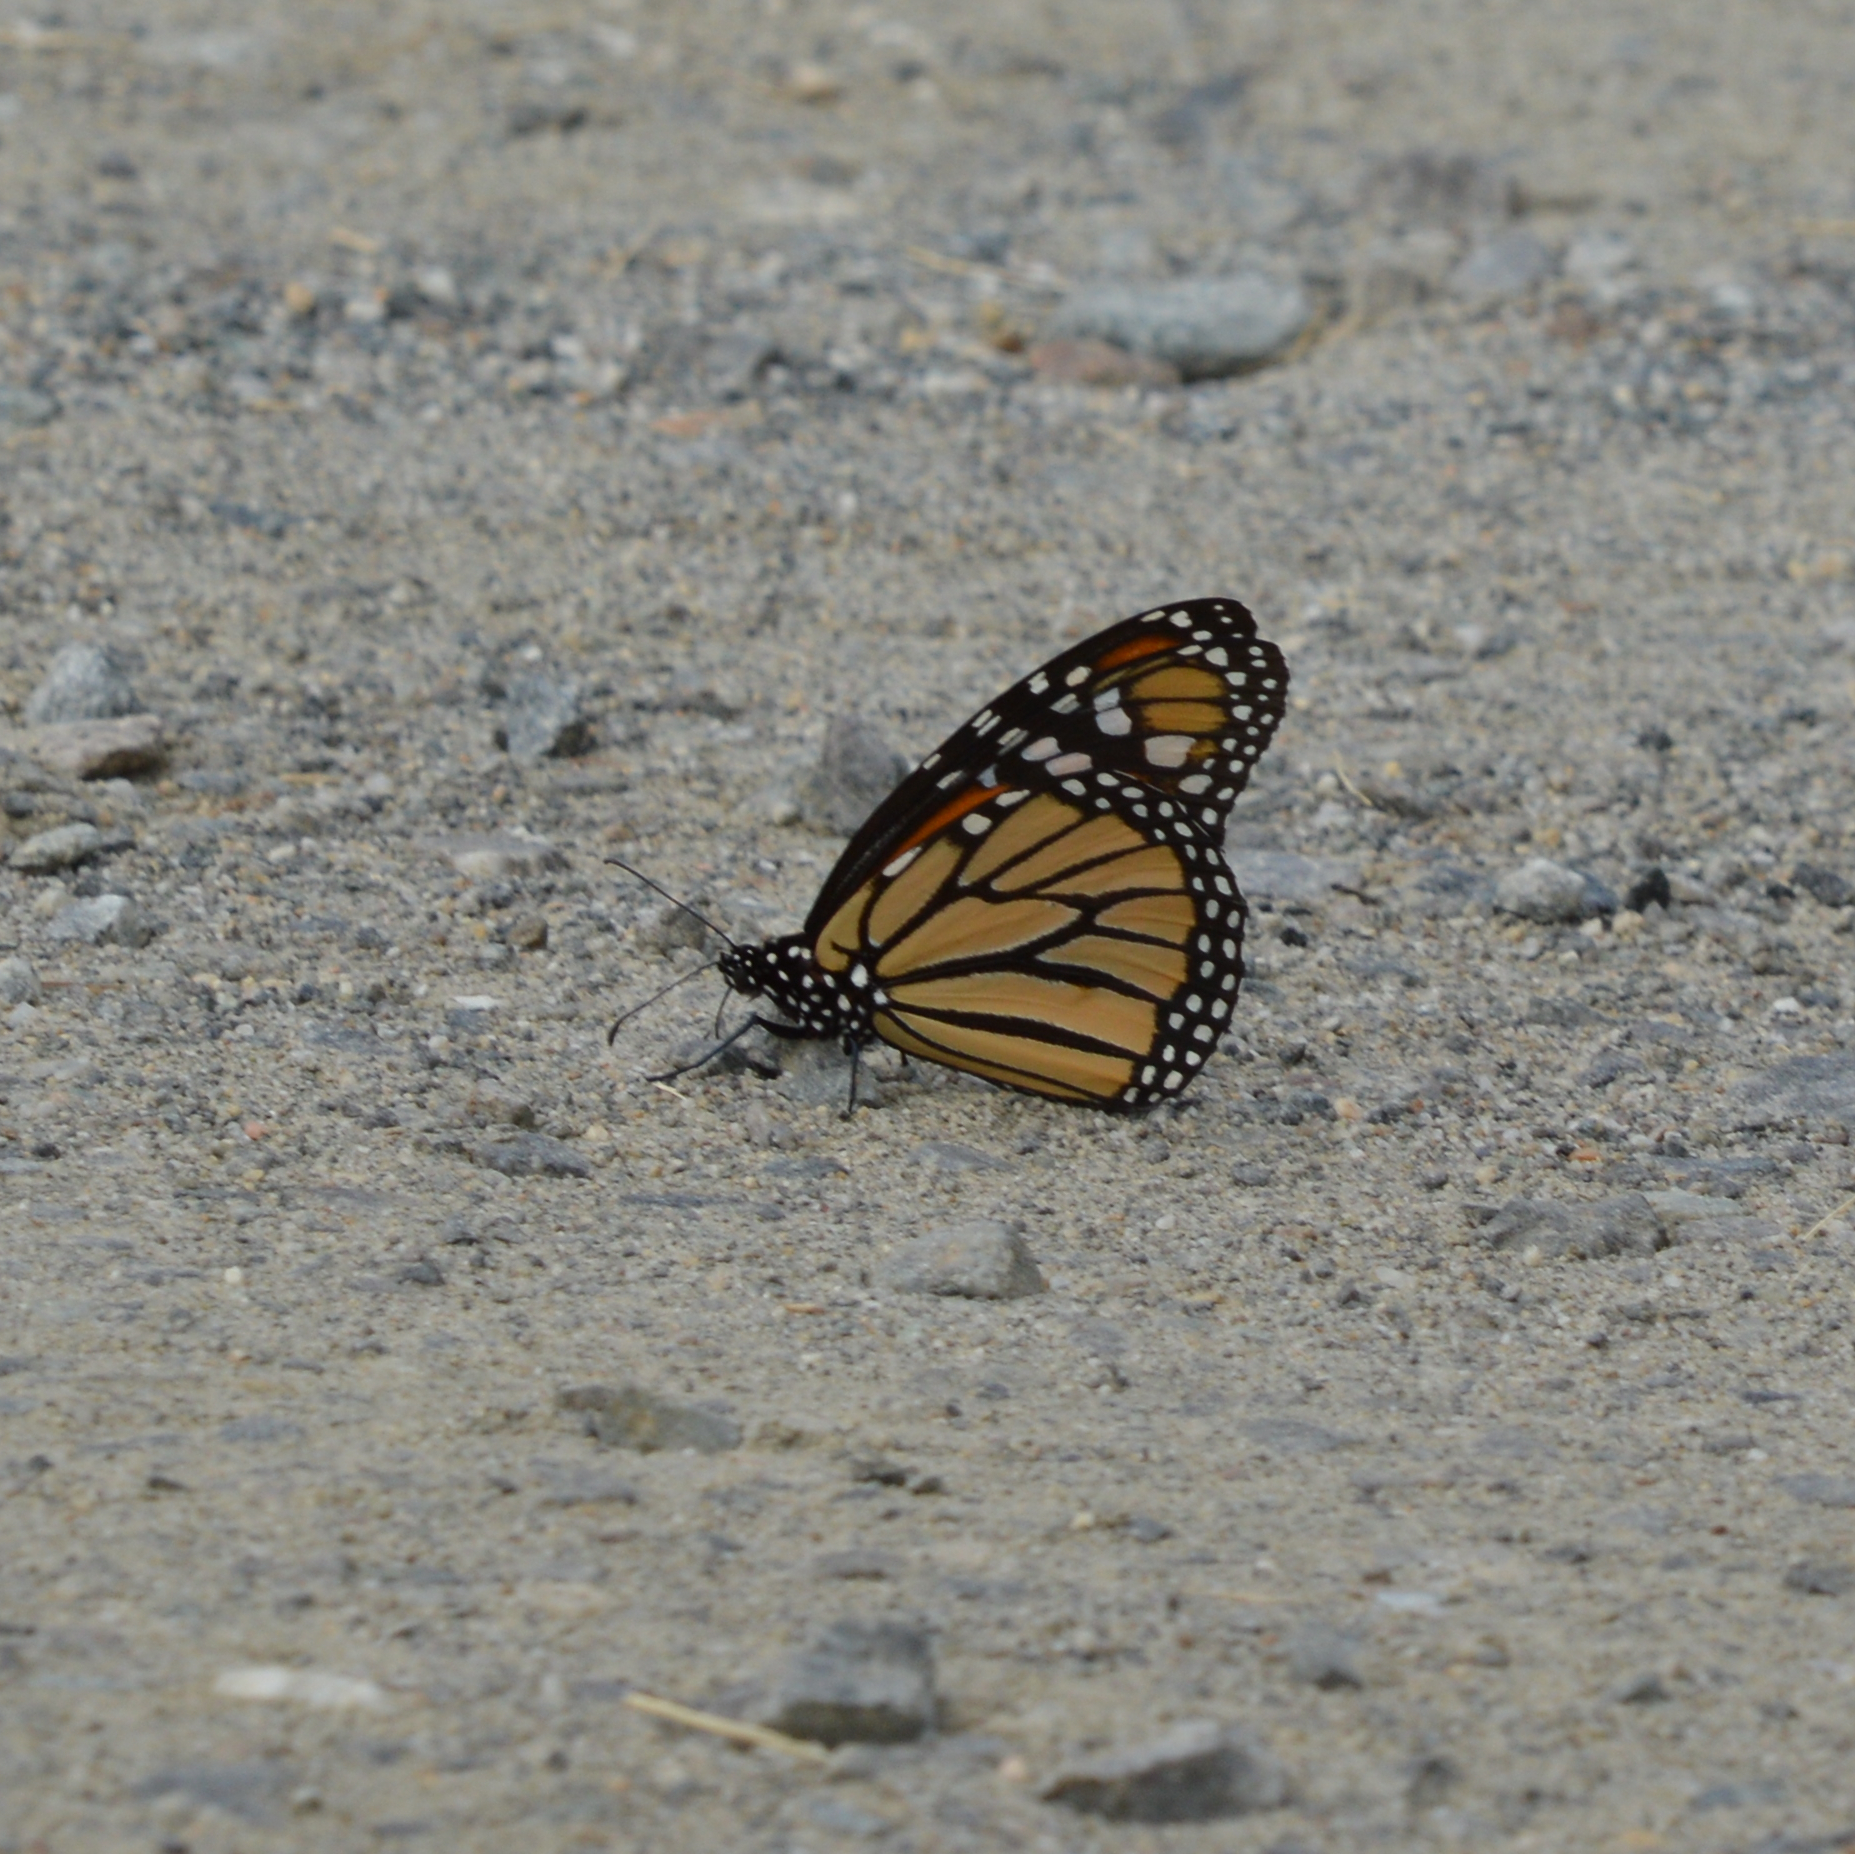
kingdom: Animalia
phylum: Arthropoda
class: Insecta
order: Lepidoptera
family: Nymphalidae
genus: Danaus
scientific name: Danaus plexippus
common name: Monarch
